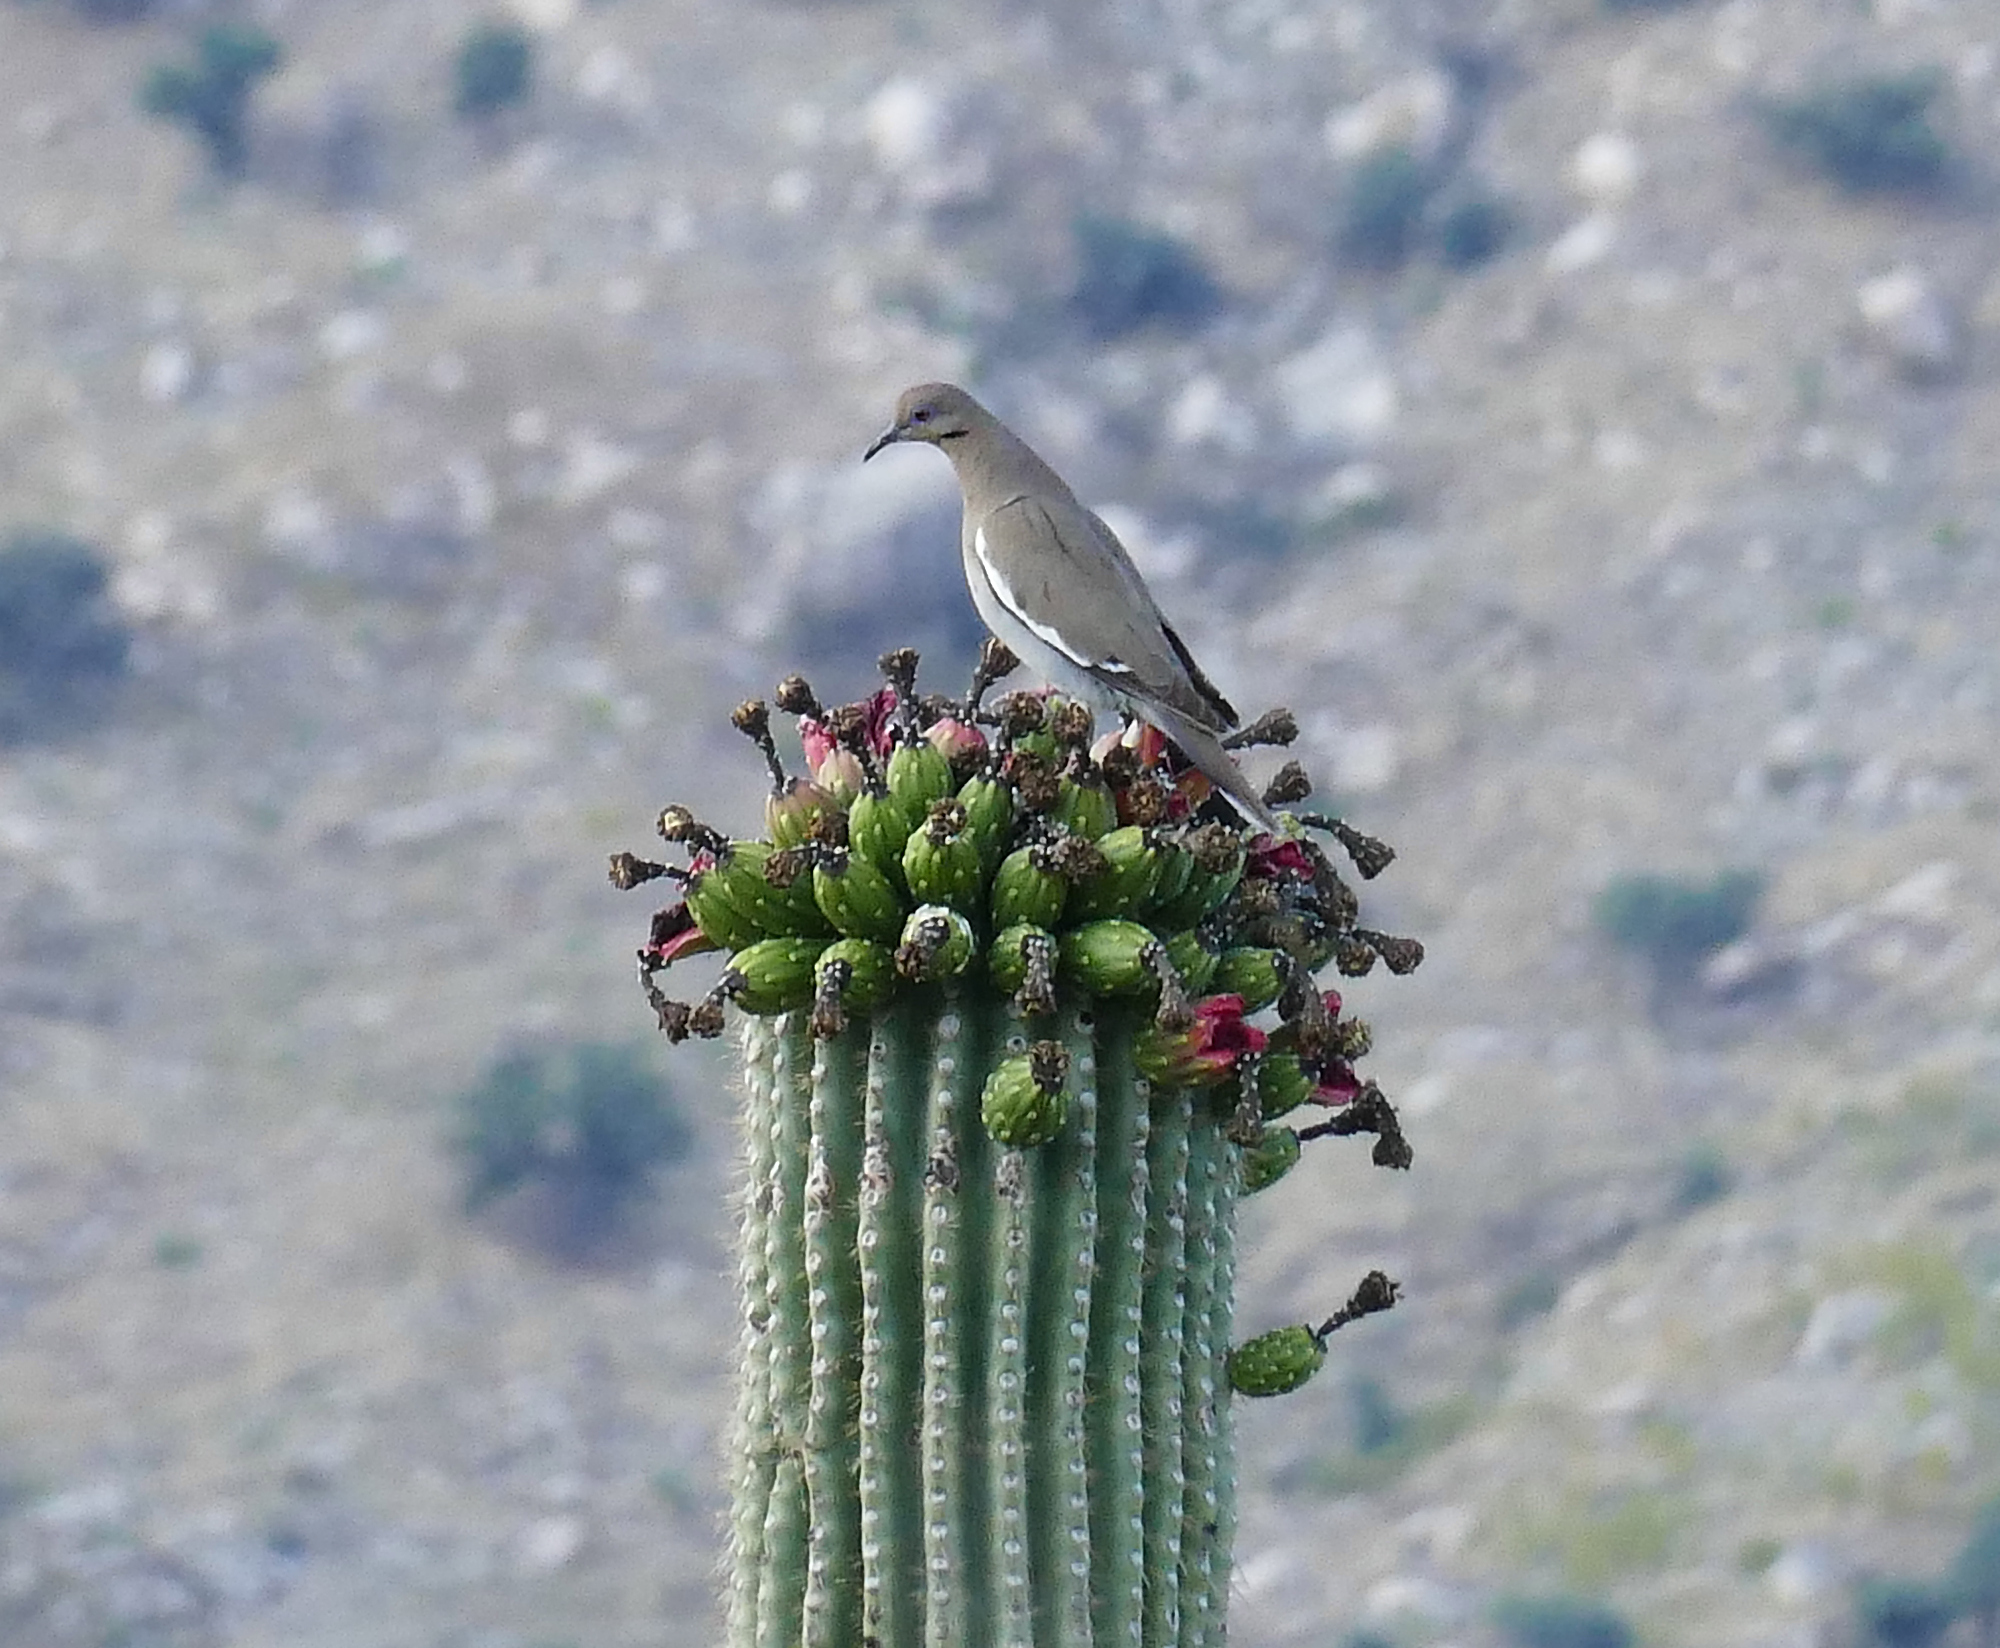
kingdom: Animalia
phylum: Chordata
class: Aves
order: Columbiformes
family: Columbidae
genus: Zenaida
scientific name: Zenaida asiatica
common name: White-winged dove
